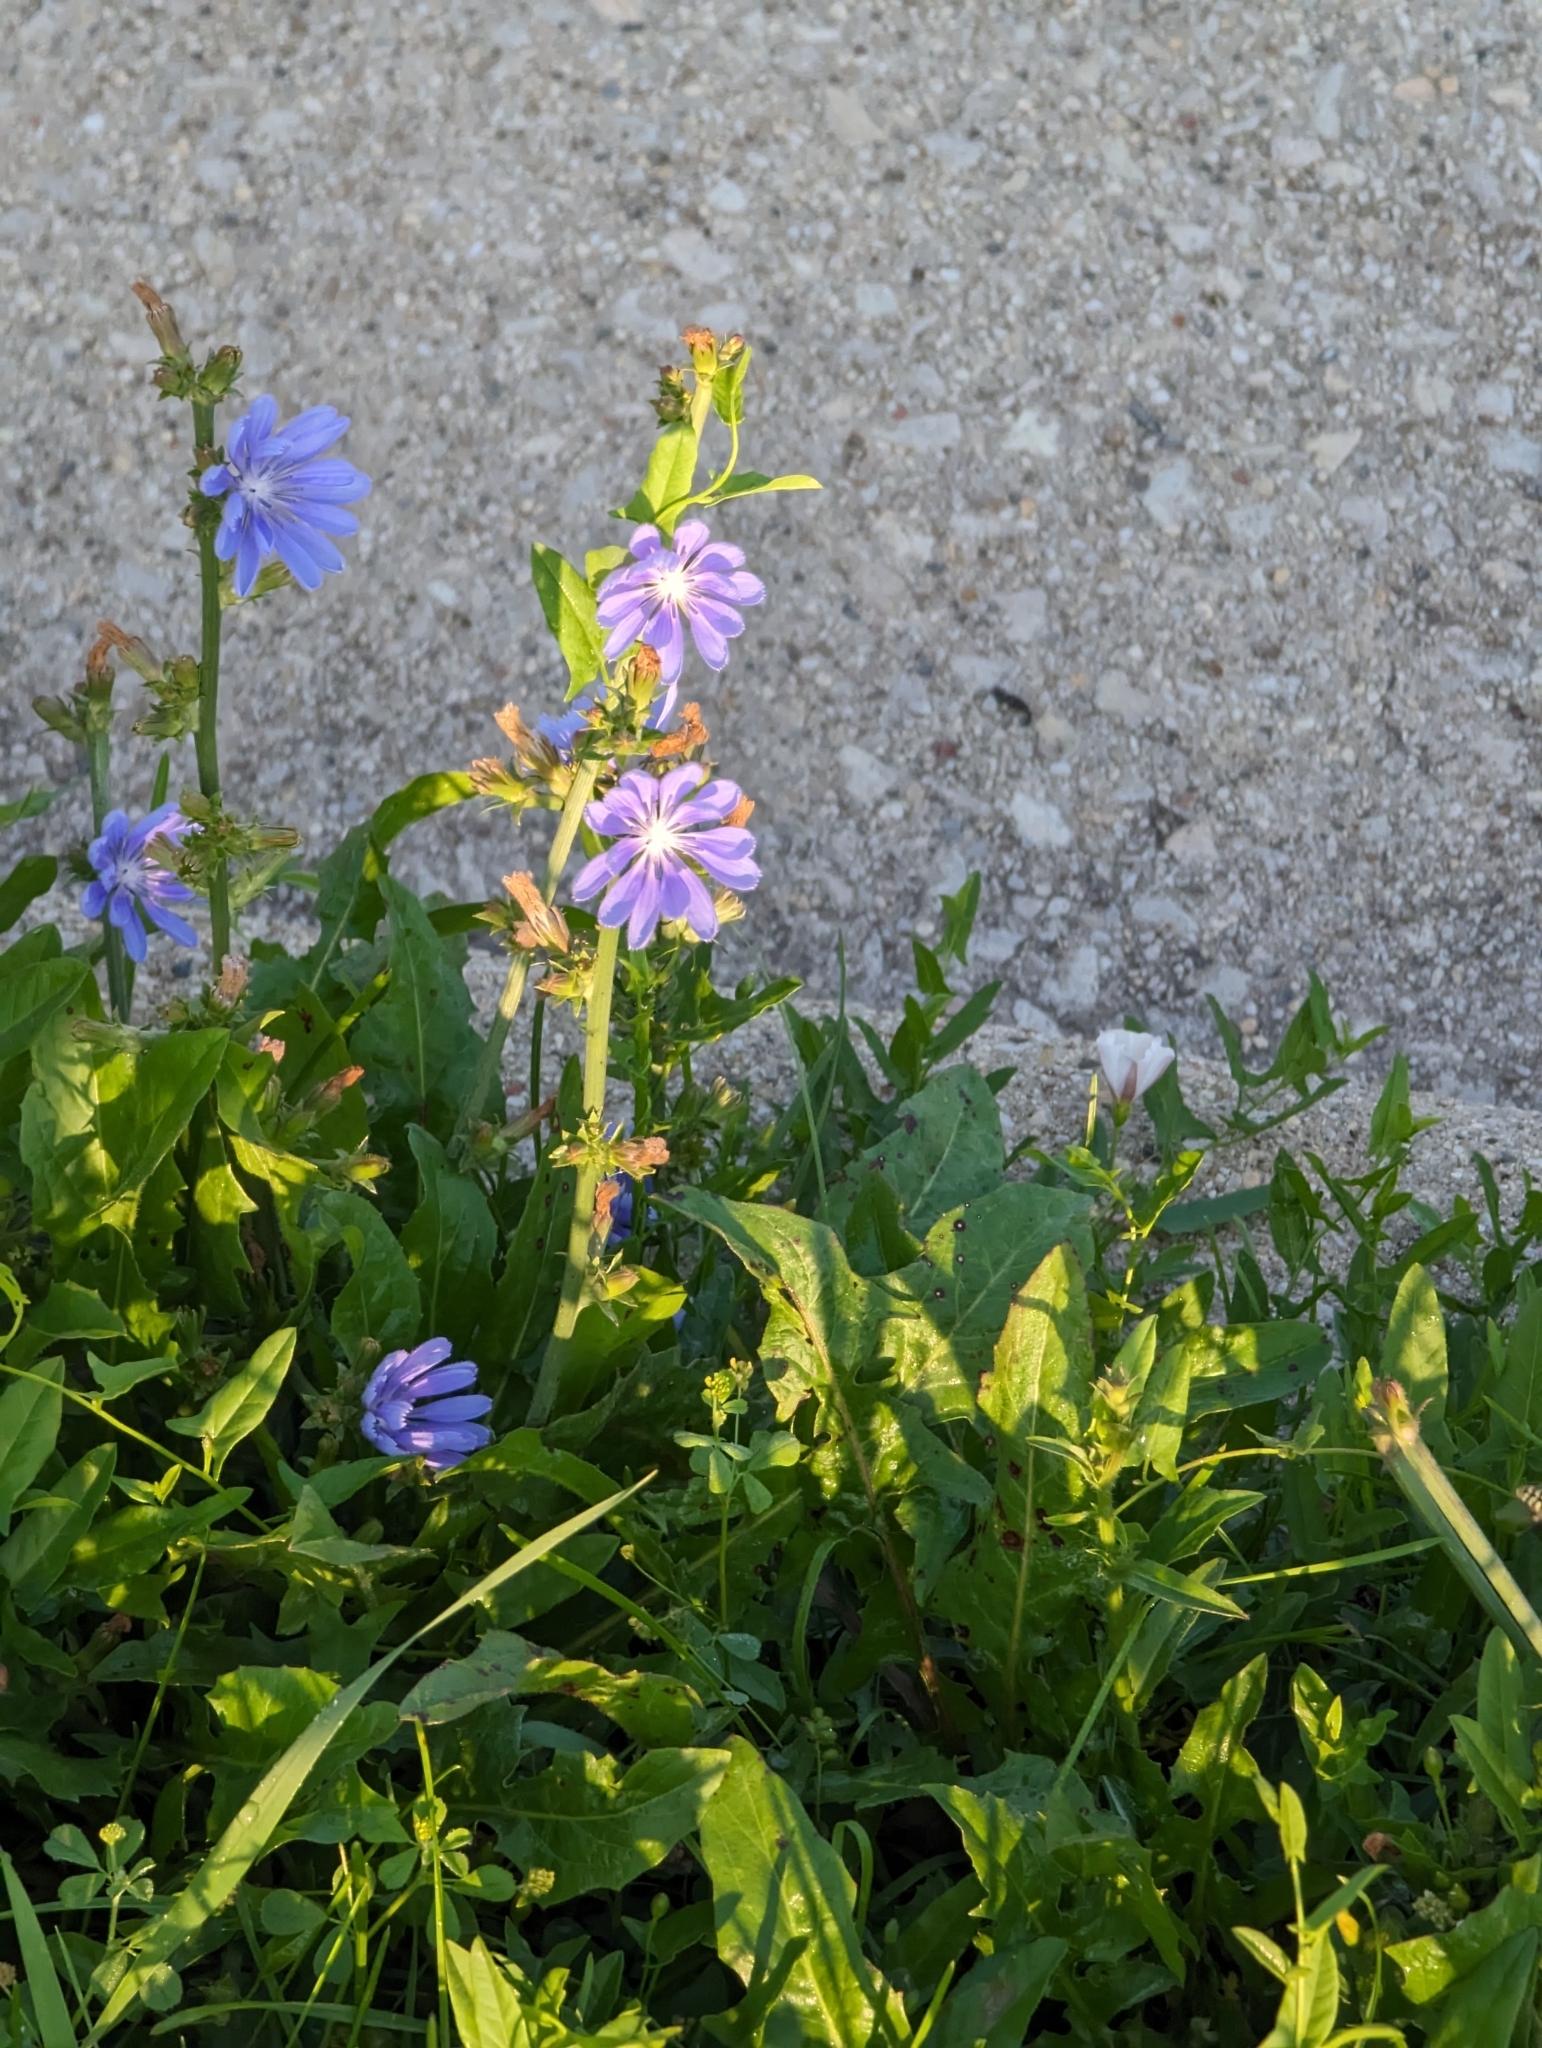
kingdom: Plantae
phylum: Tracheophyta
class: Magnoliopsida
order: Asterales
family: Asteraceae
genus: Cichorium
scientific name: Cichorium intybus
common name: Chicory
